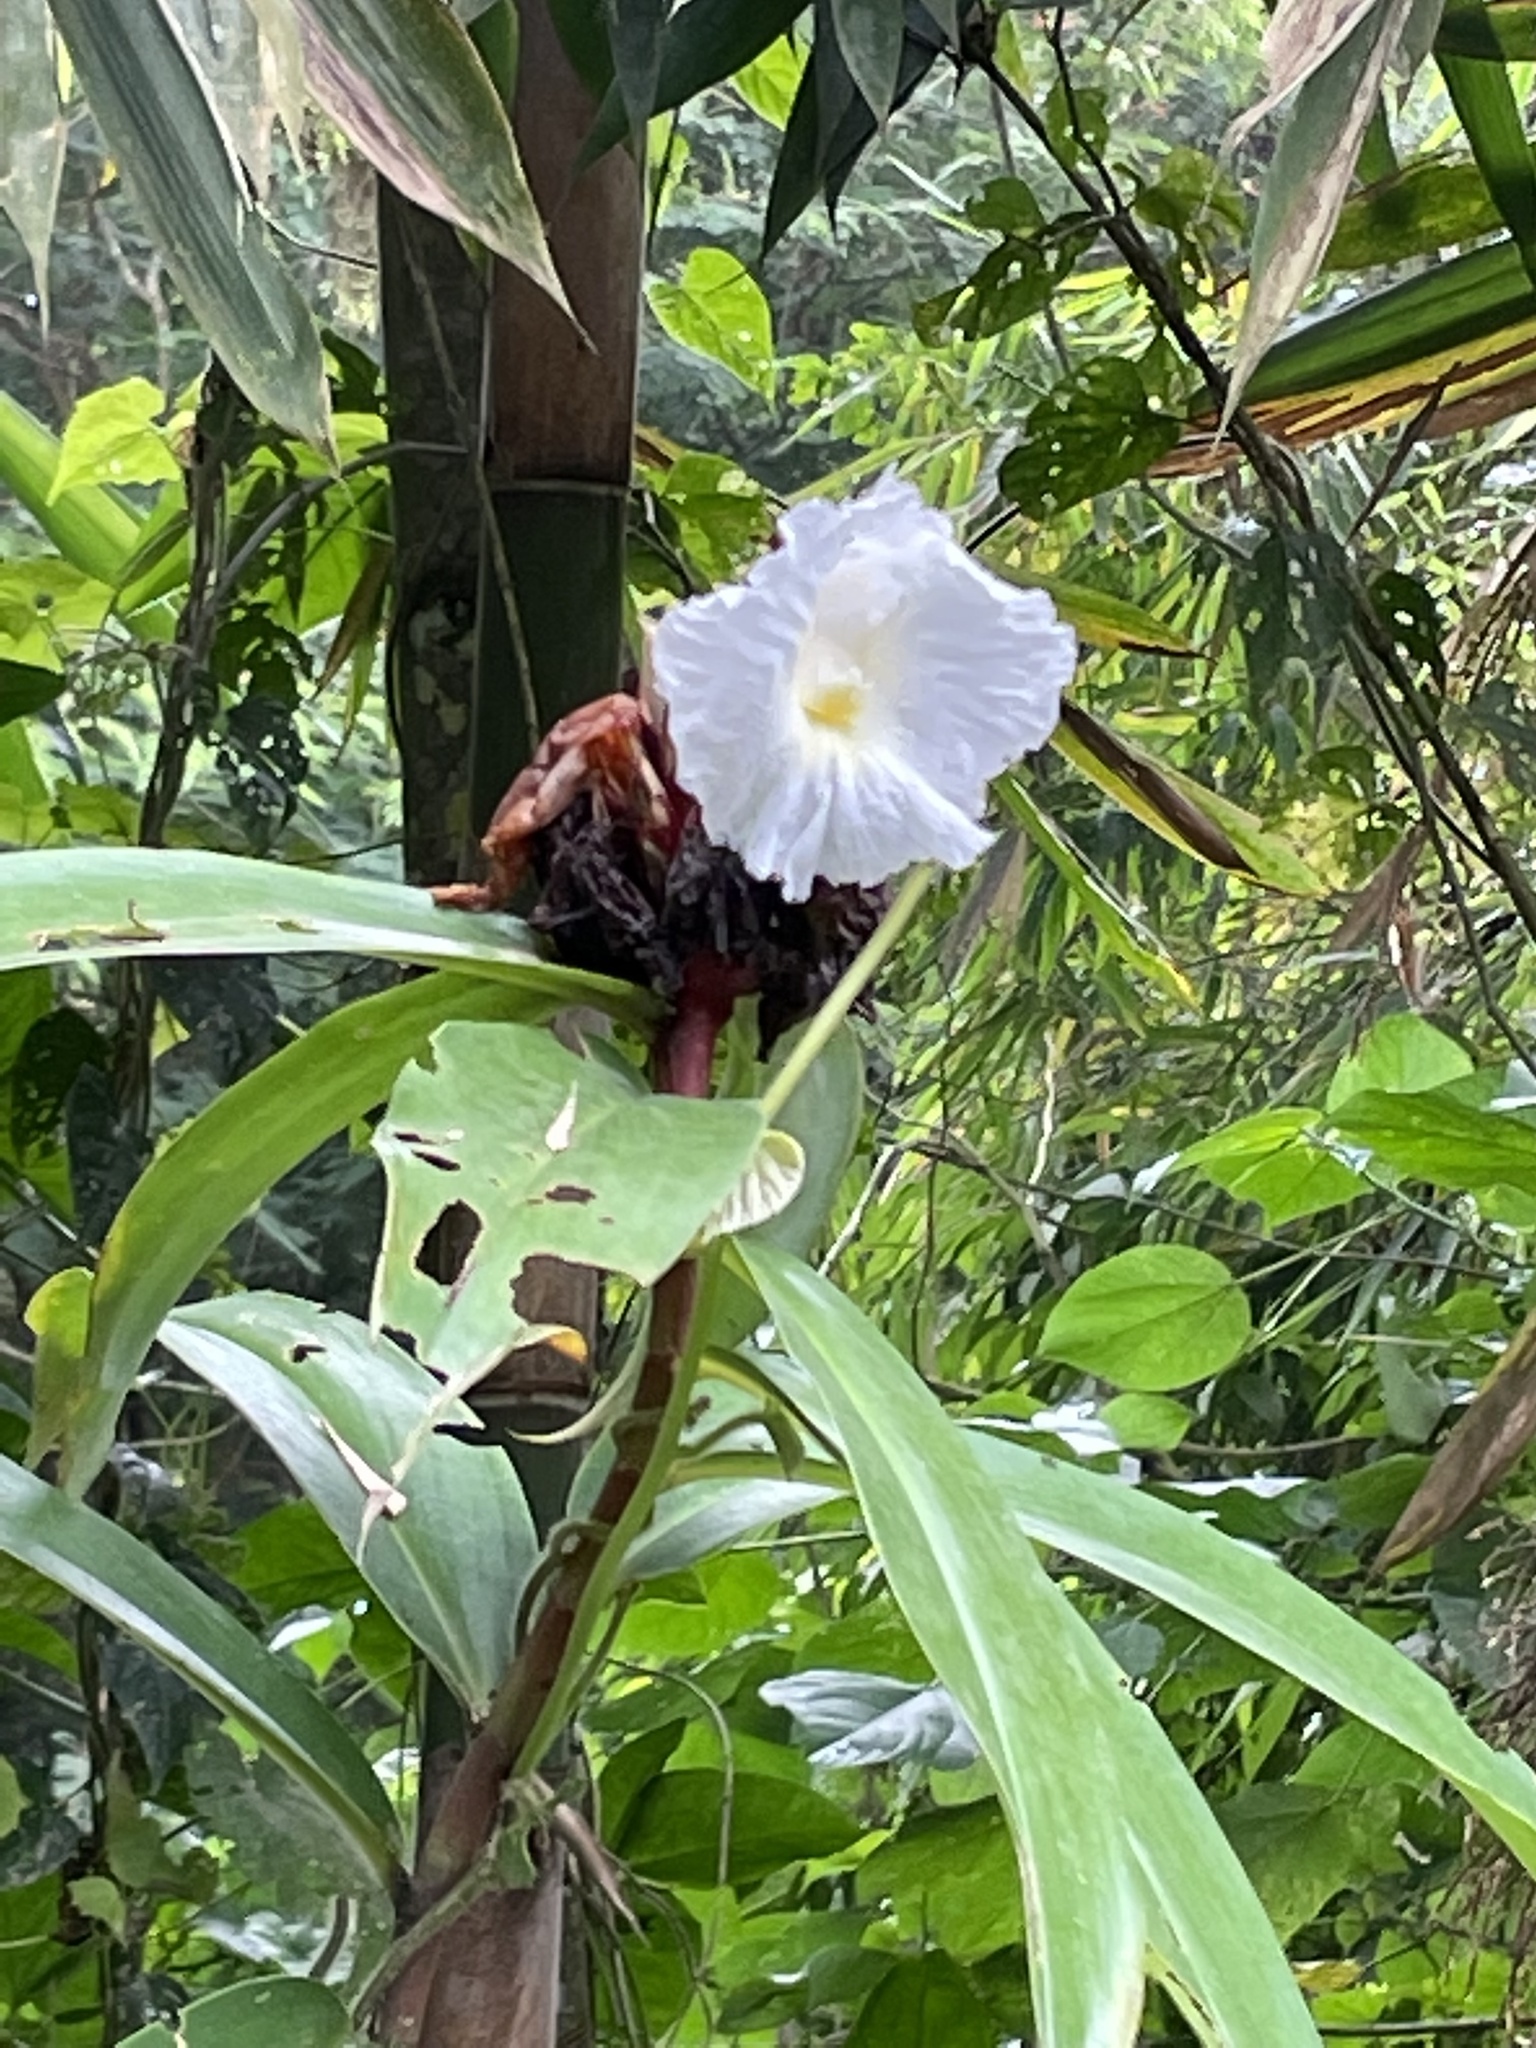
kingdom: Plantae
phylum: Tracheophyta
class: Liliopsida
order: Zingiberales
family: Costaceae
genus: Hellenia
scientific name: Hellenia speciosa
